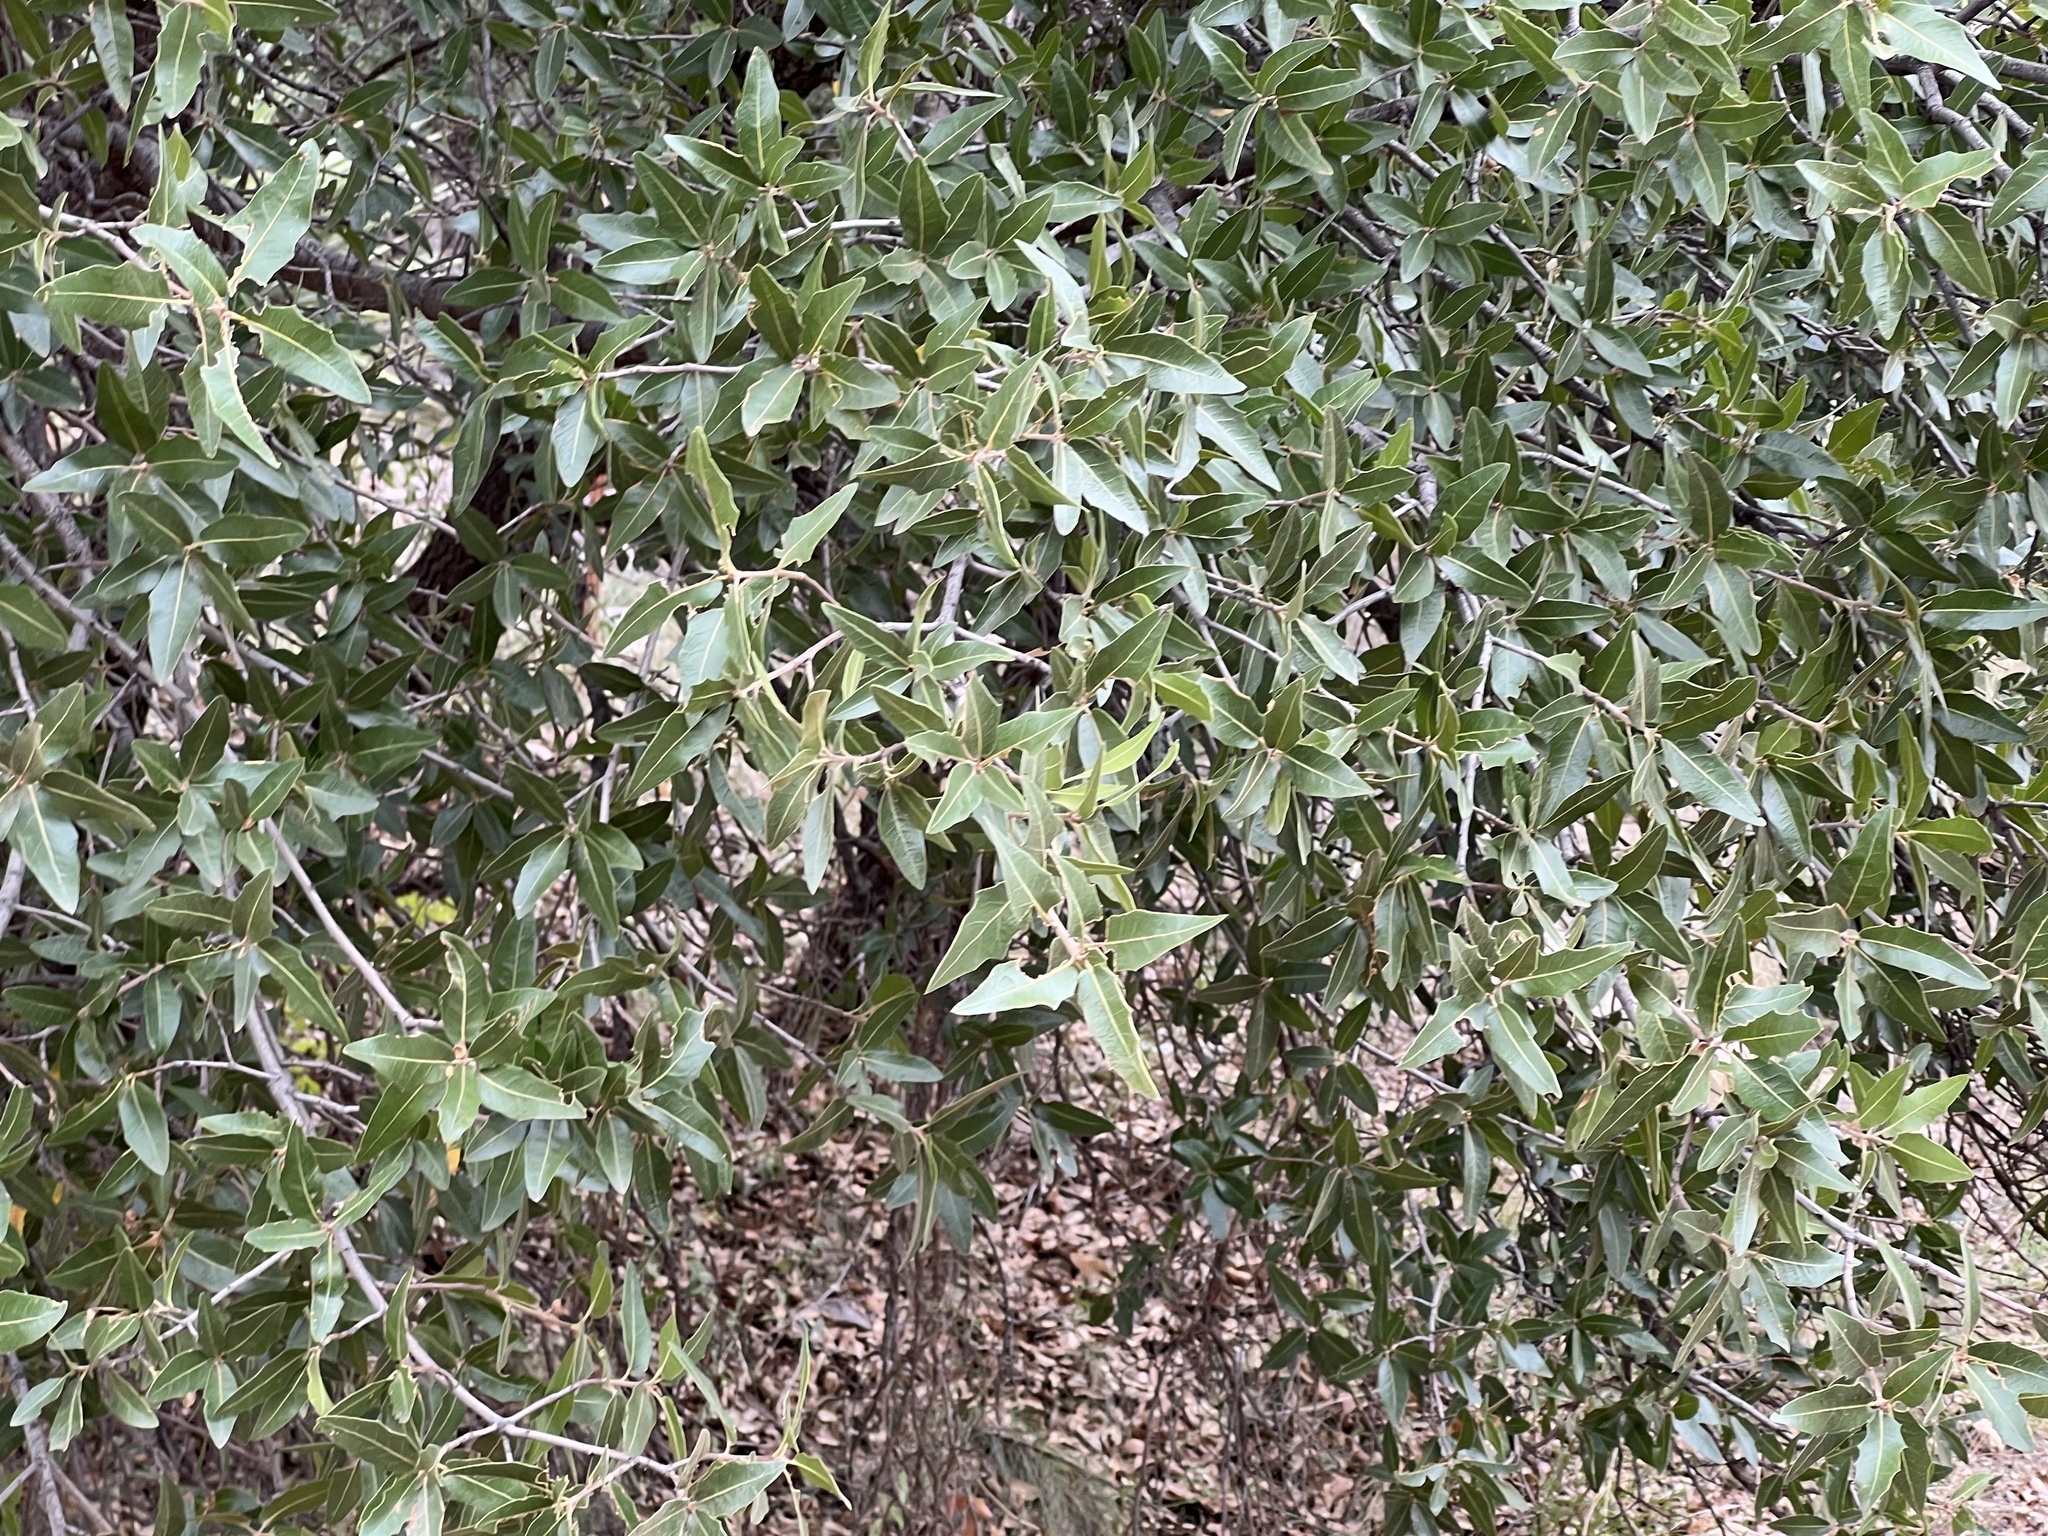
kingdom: Plantae
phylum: Tracheophyta
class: Magnoliopsida
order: Fagales
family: Fagaceae
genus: Quercus
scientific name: Quercus emoryi
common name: Emory oak
